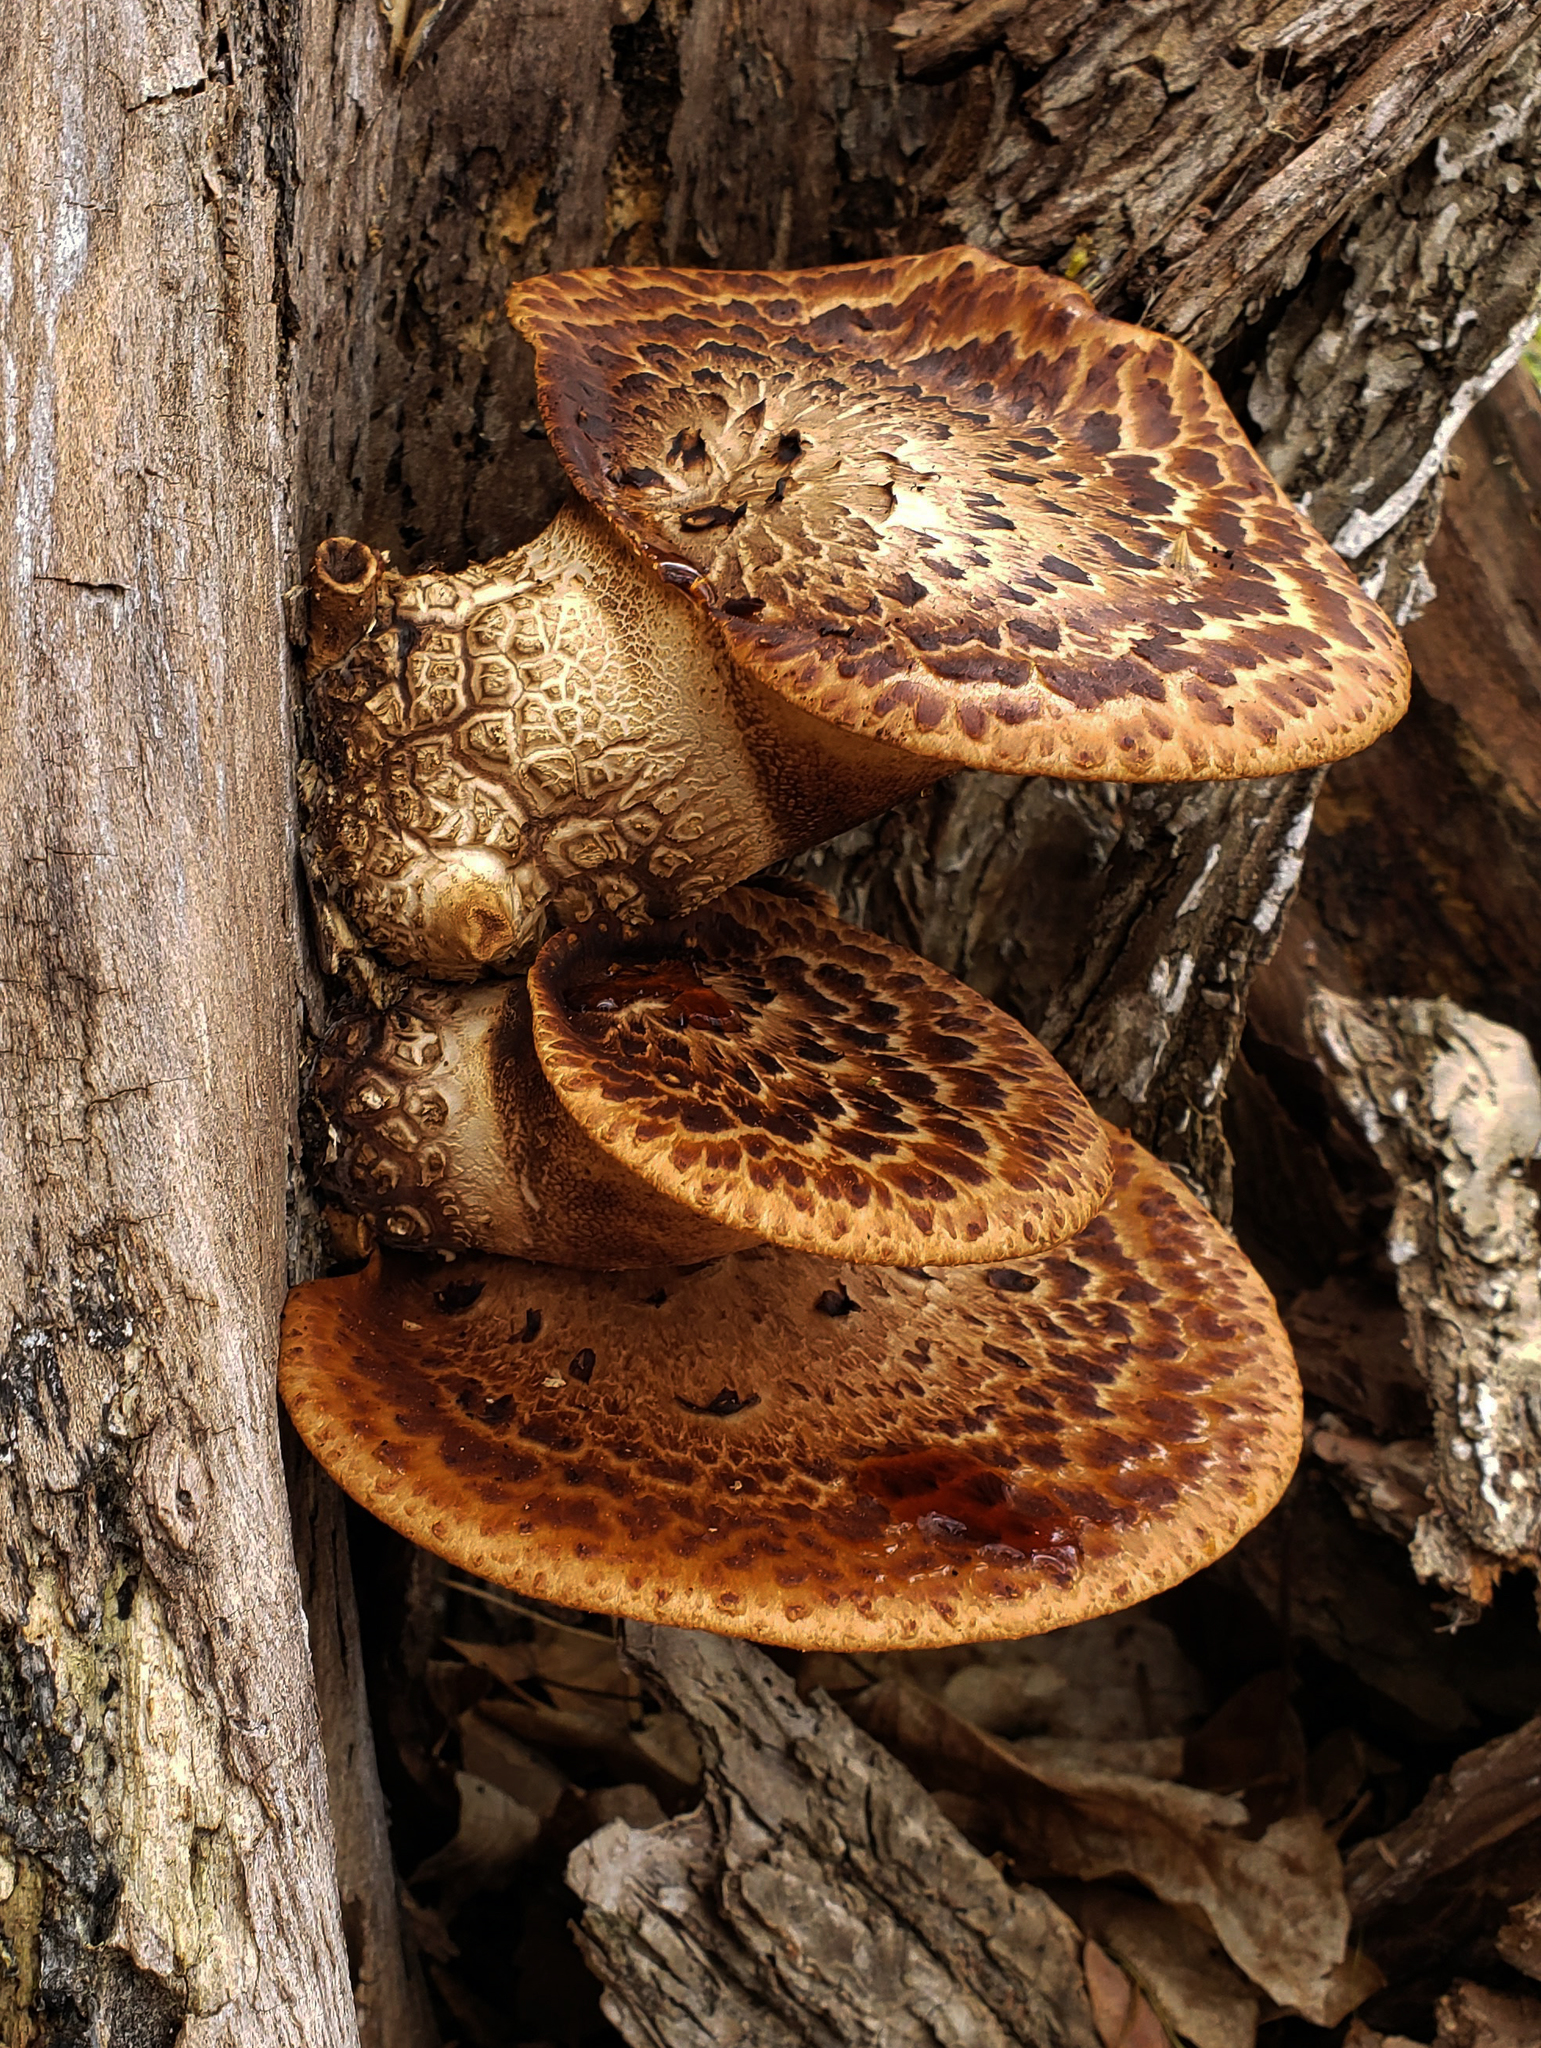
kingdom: Fungi
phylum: Basidiomycota
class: Agaricomycetes
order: Polyporales
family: Polyporaceae
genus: Cerioporus
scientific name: Cerioporus squamosus
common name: Dryad's saddle
